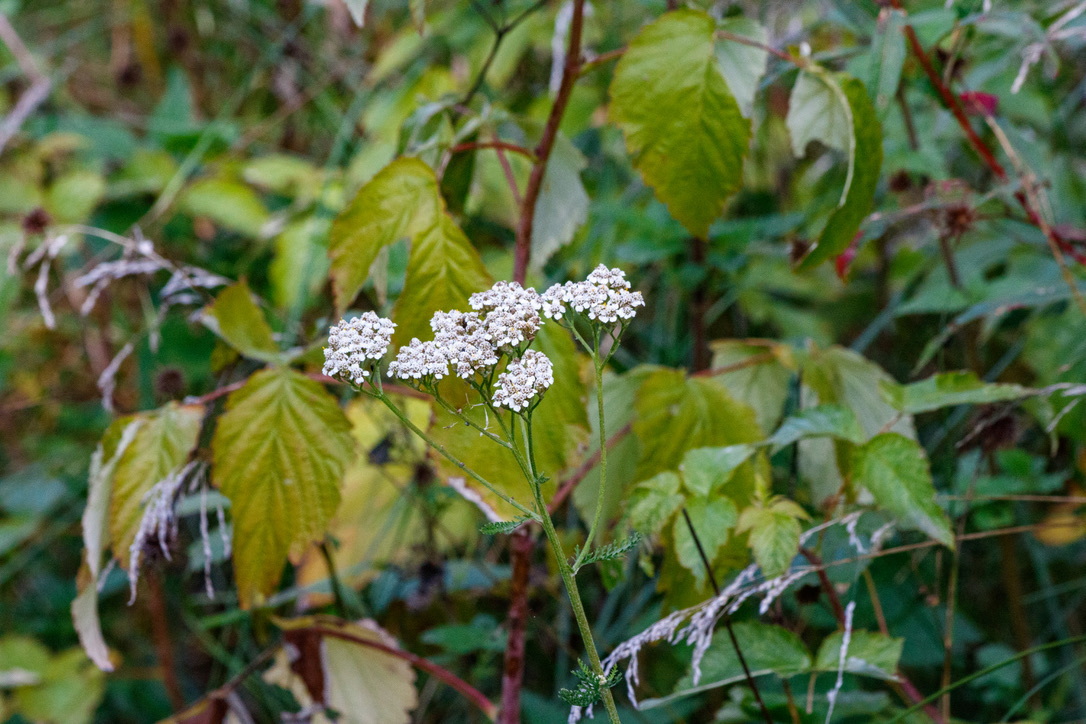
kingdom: Plantae
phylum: Tracheophyta
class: Magnoliopsida
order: Asterales
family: Asteraceae
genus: Achillea
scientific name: Achillea millefolium
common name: Yarrow
